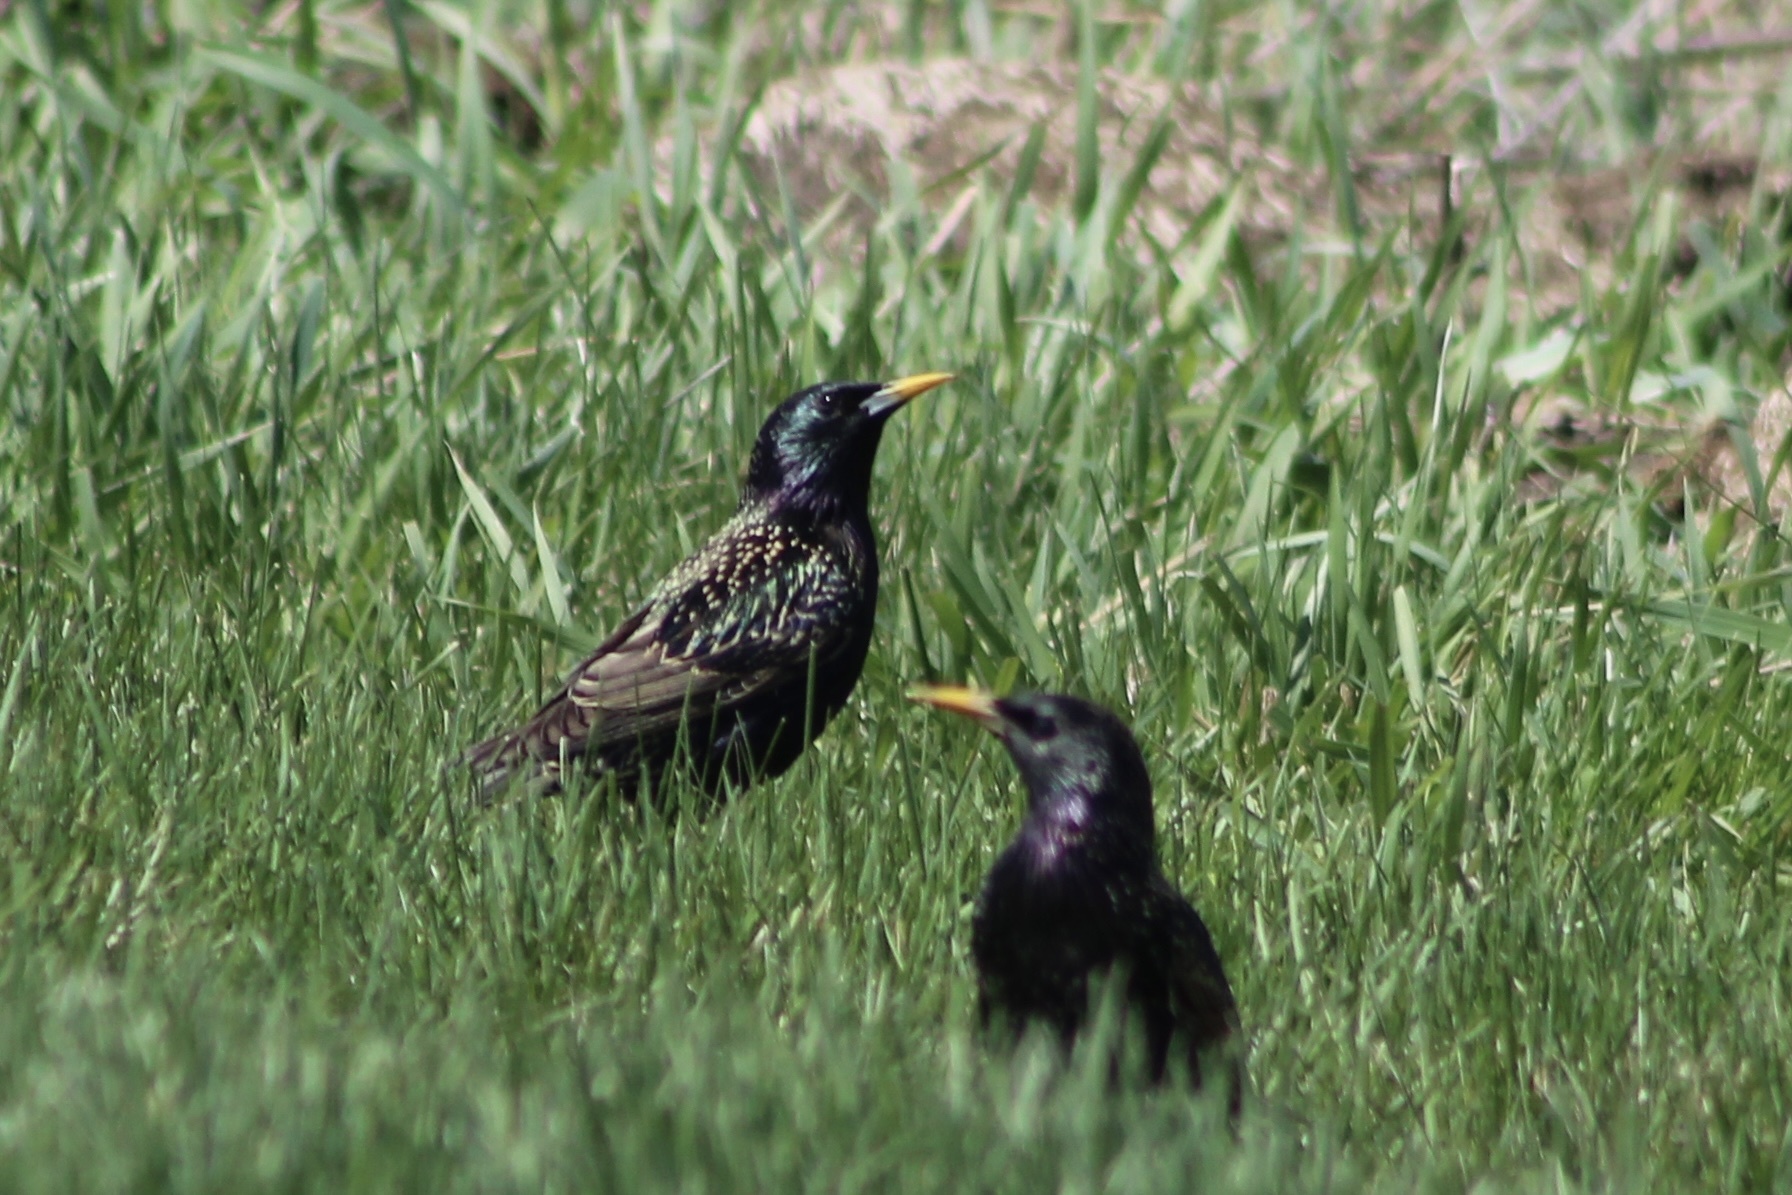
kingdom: Animalia
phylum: Chordata
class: Aves
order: Passeriformes
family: Sturnidae
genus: Sturnus
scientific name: Sturnus vulgaris
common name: Common starling
